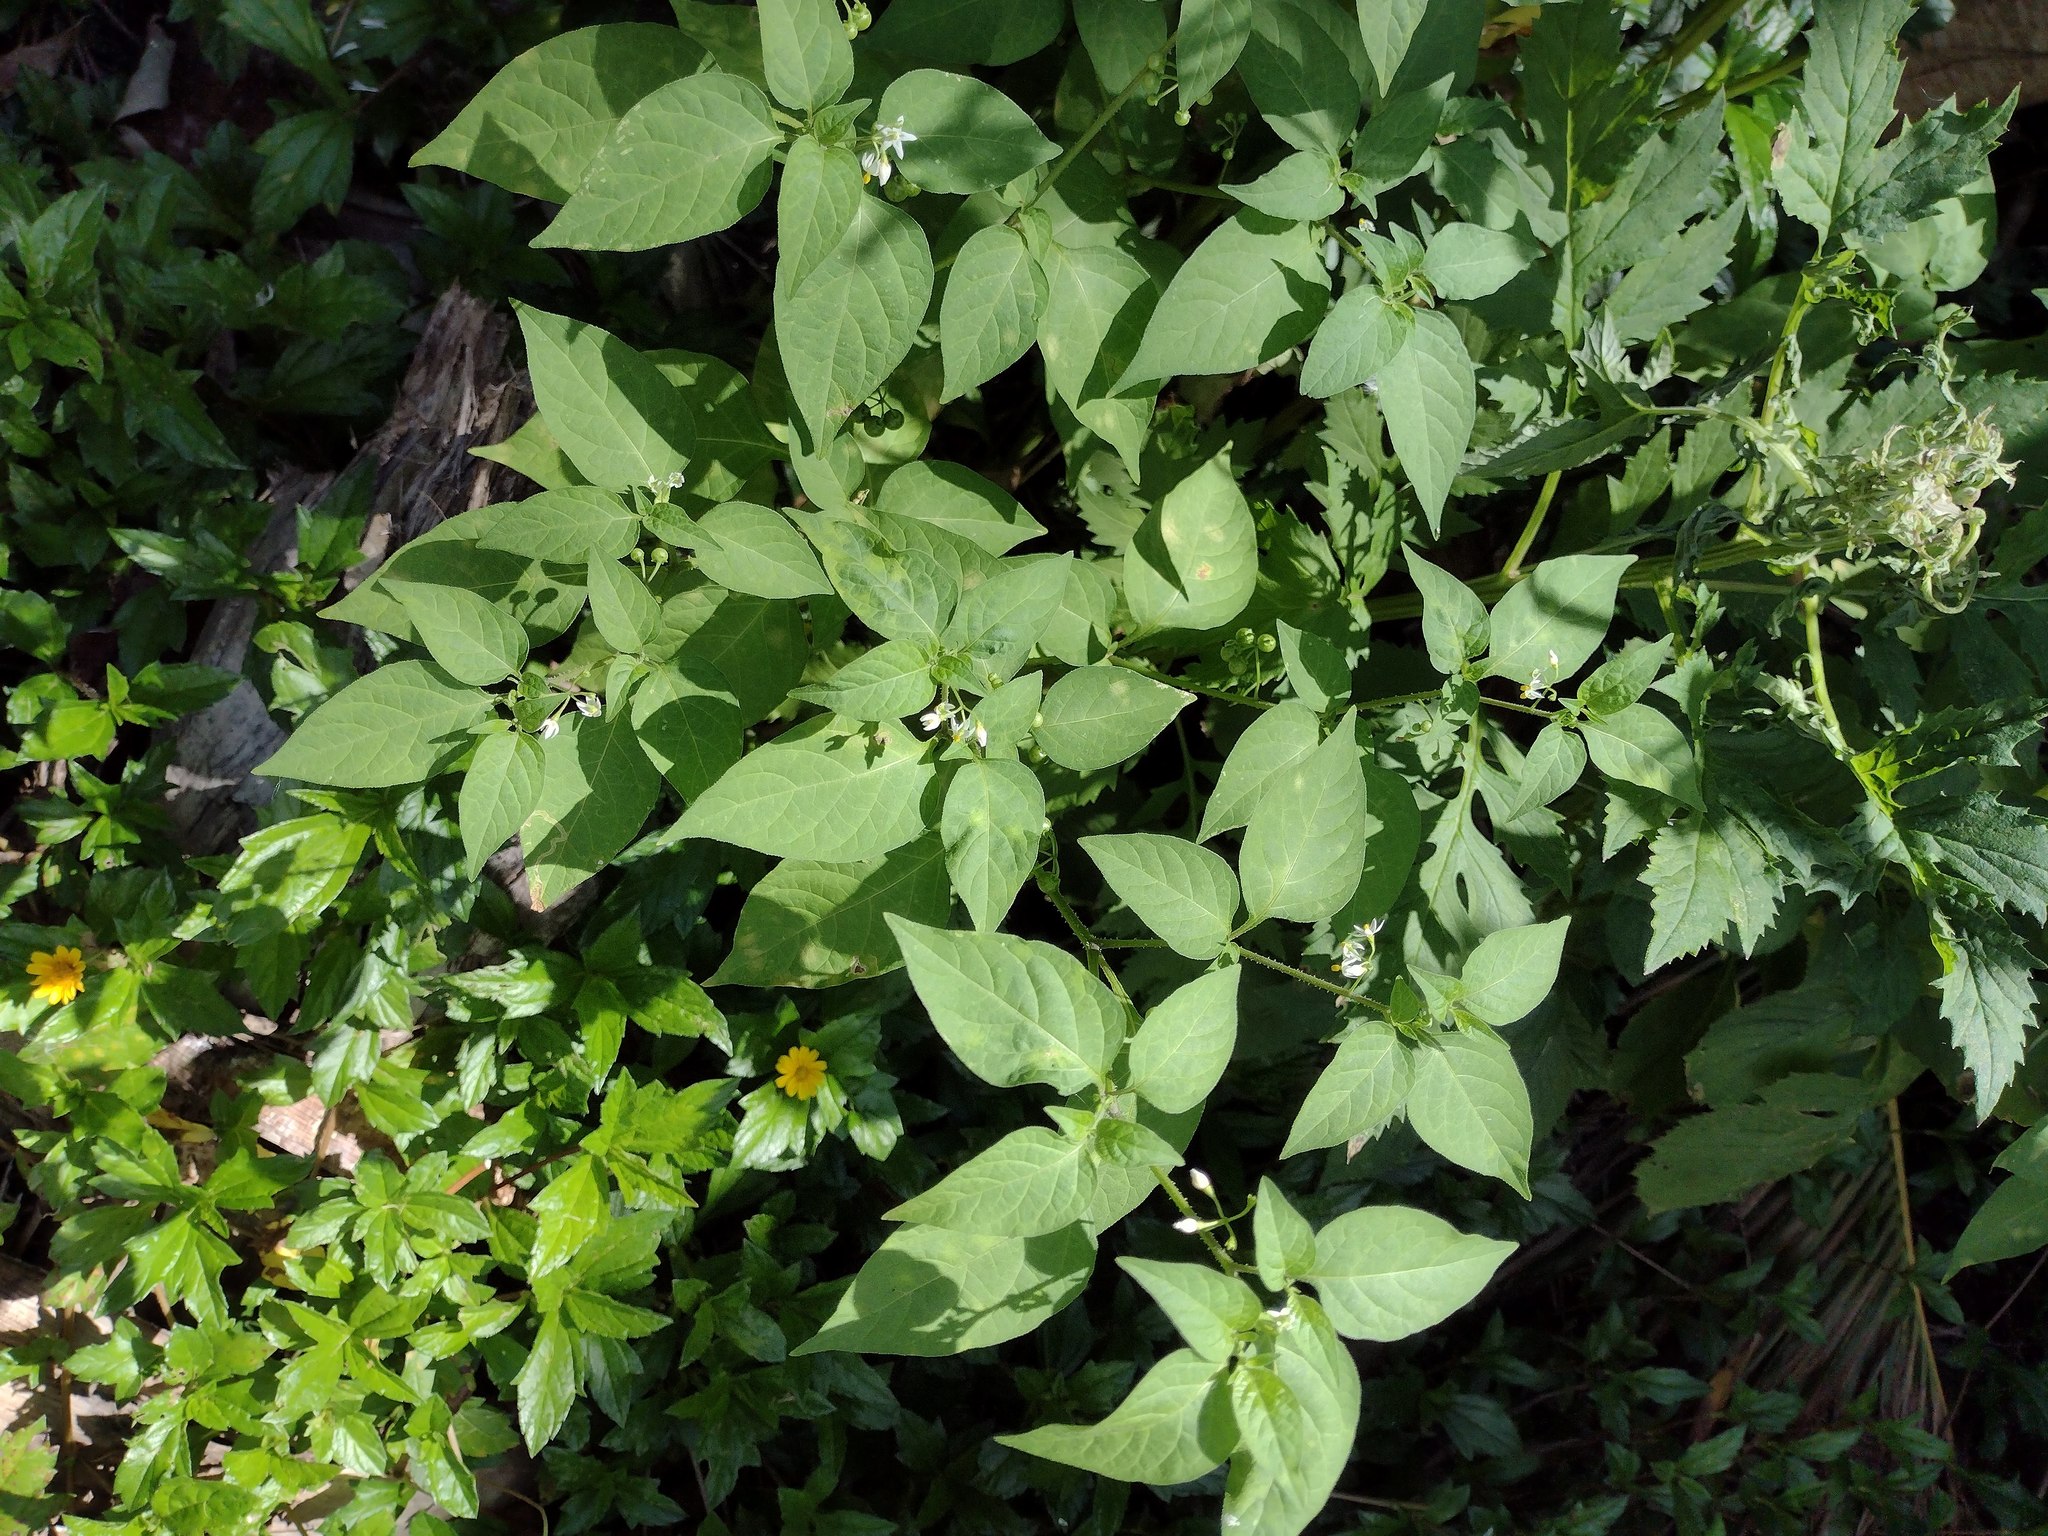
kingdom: Plantae
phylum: Tracheophyta
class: Magnoliopsida
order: Solanales
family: Solanaceae
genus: Solanum
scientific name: Solanum americanum
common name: American black nightshade
